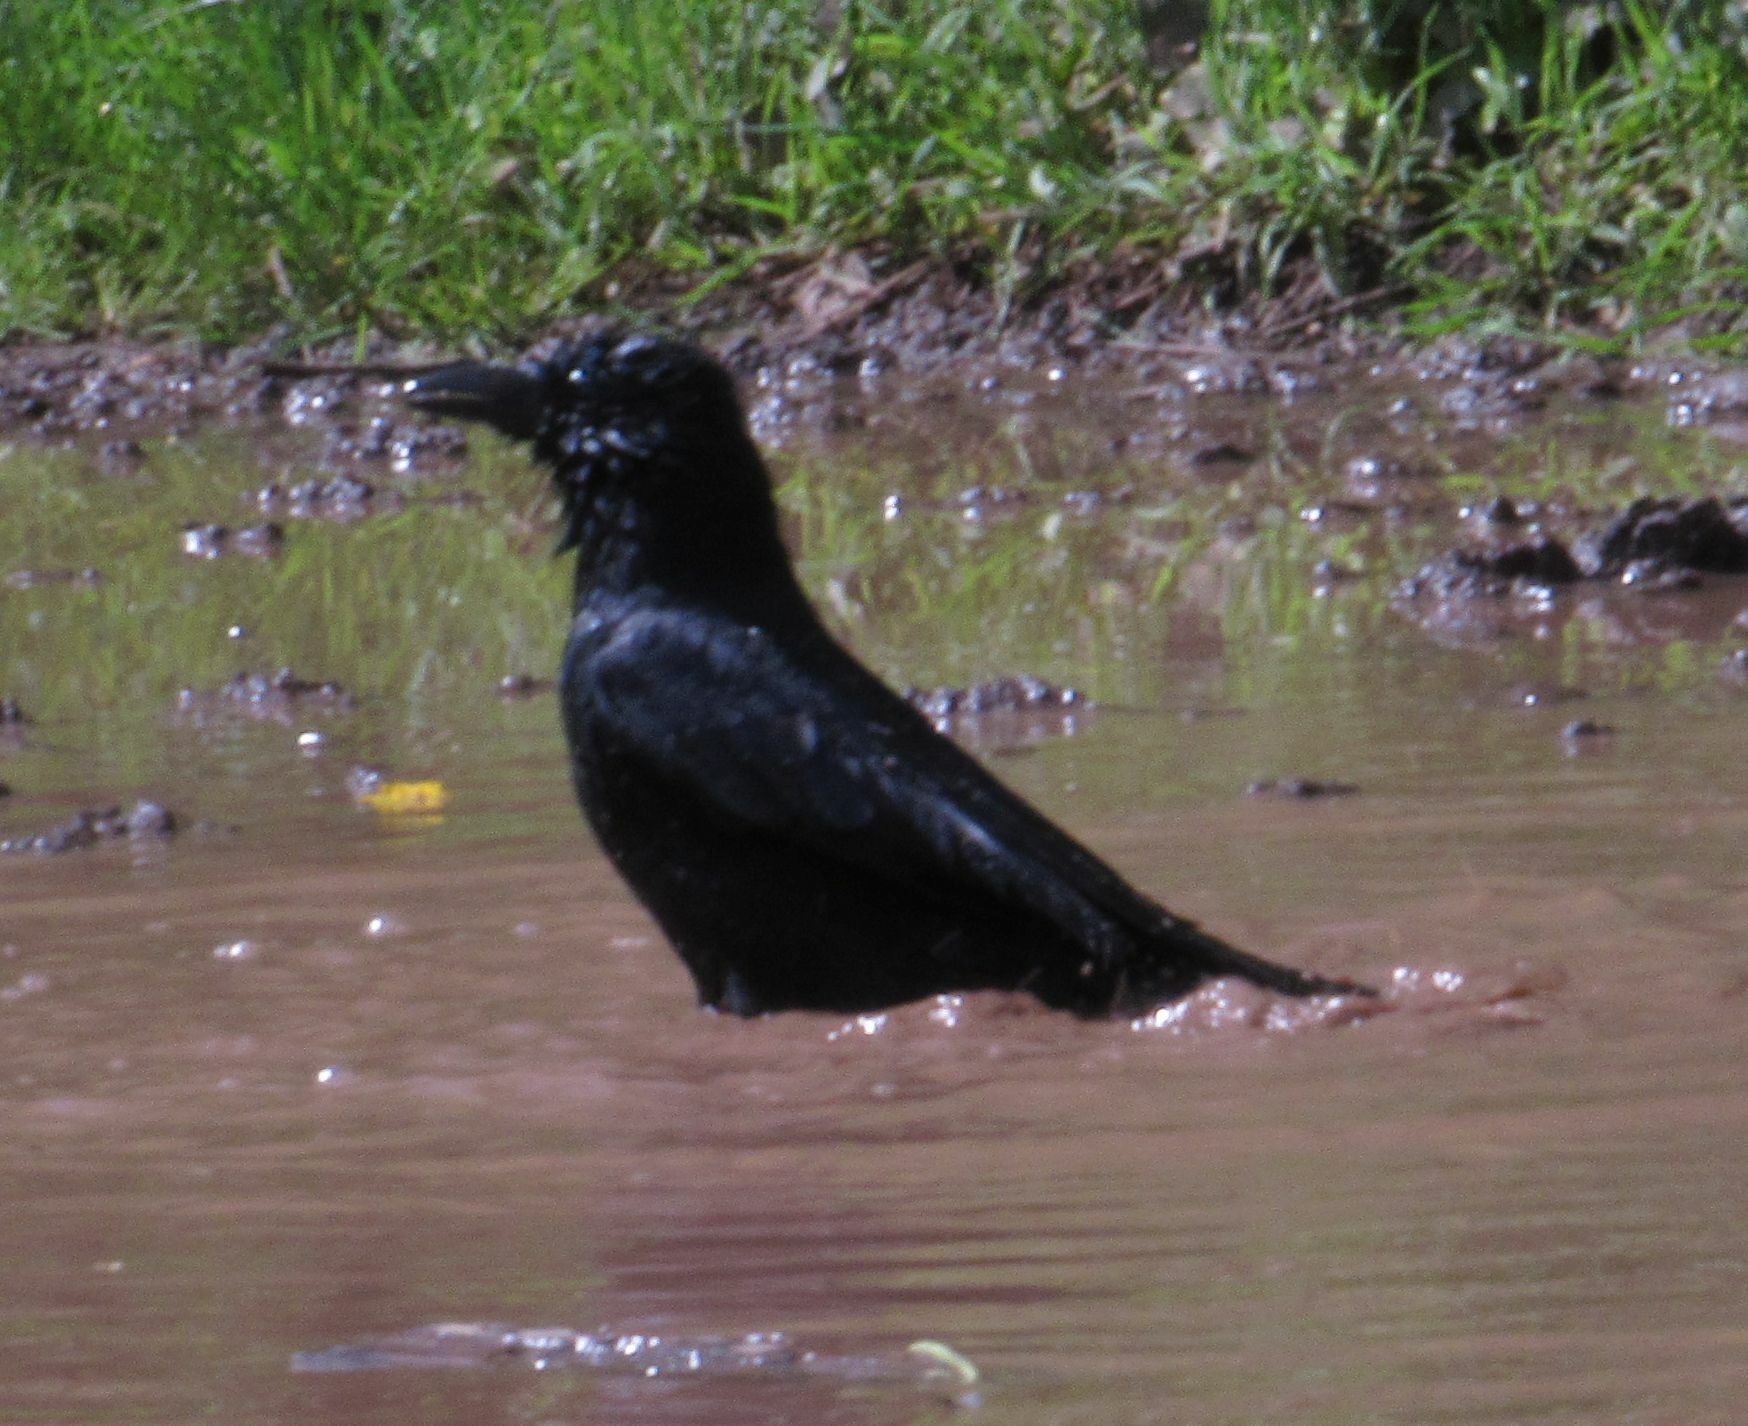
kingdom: Animalia
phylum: Chordata
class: Aves
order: Passeriformes
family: Corvidae
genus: Corvus
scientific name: Corvus corone
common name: Carrion crow
